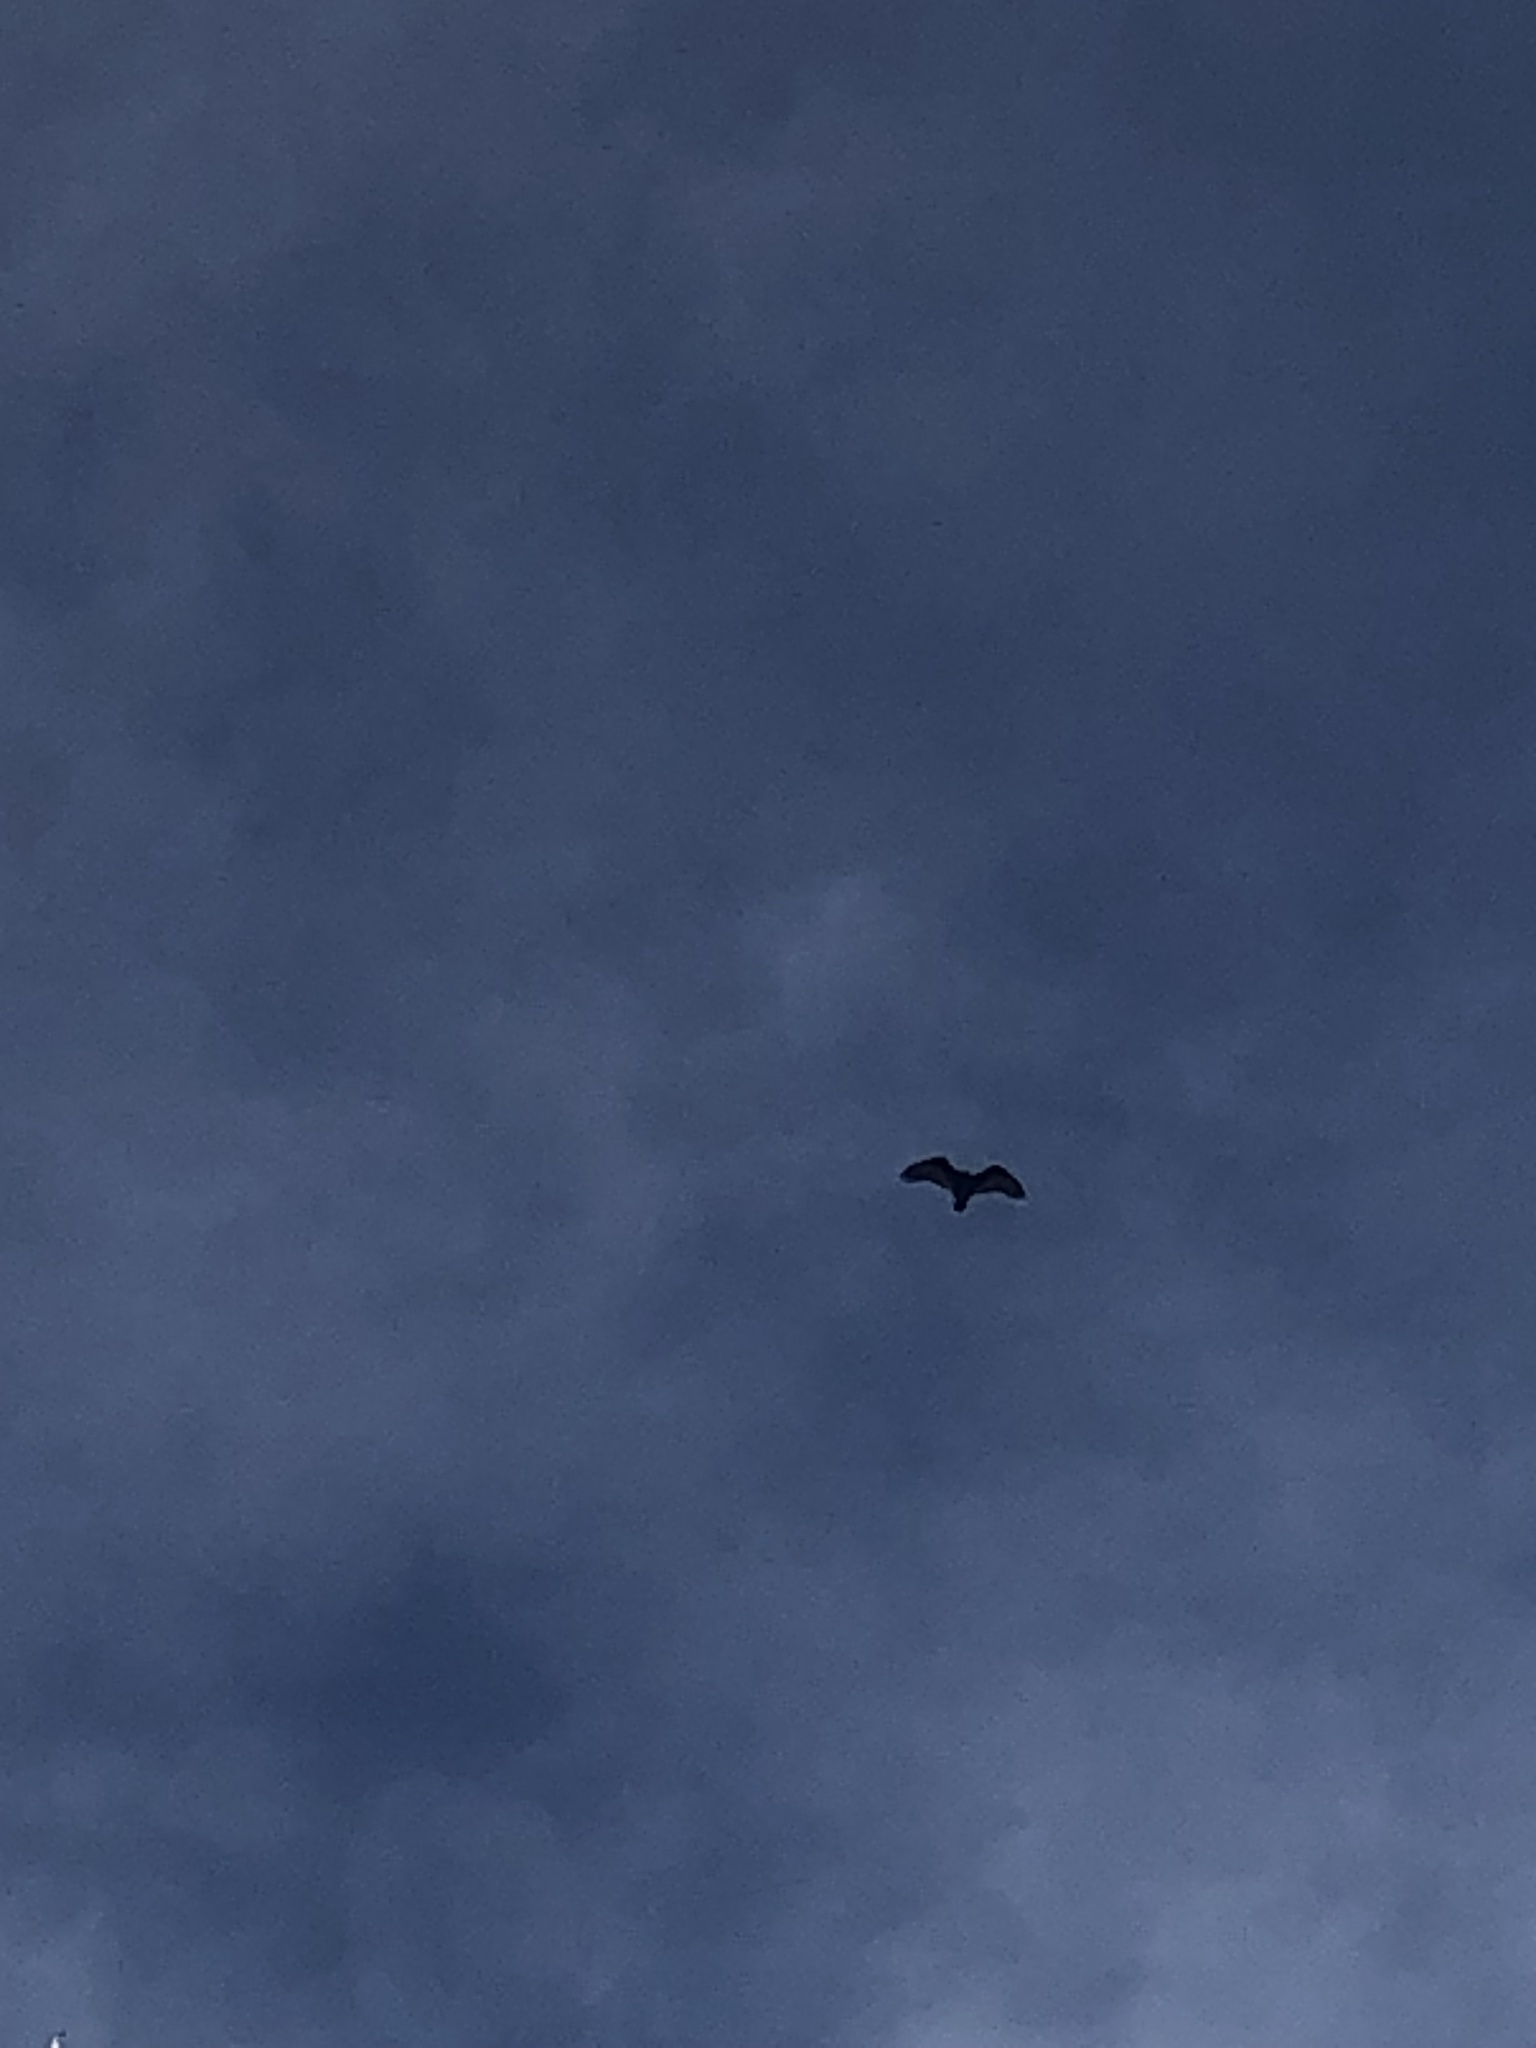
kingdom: Animalia
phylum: Chordata
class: Aves
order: Accipitriformes
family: Cathartidae
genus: Cathartes
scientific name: Cathartes aura
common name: Turkey vulture
